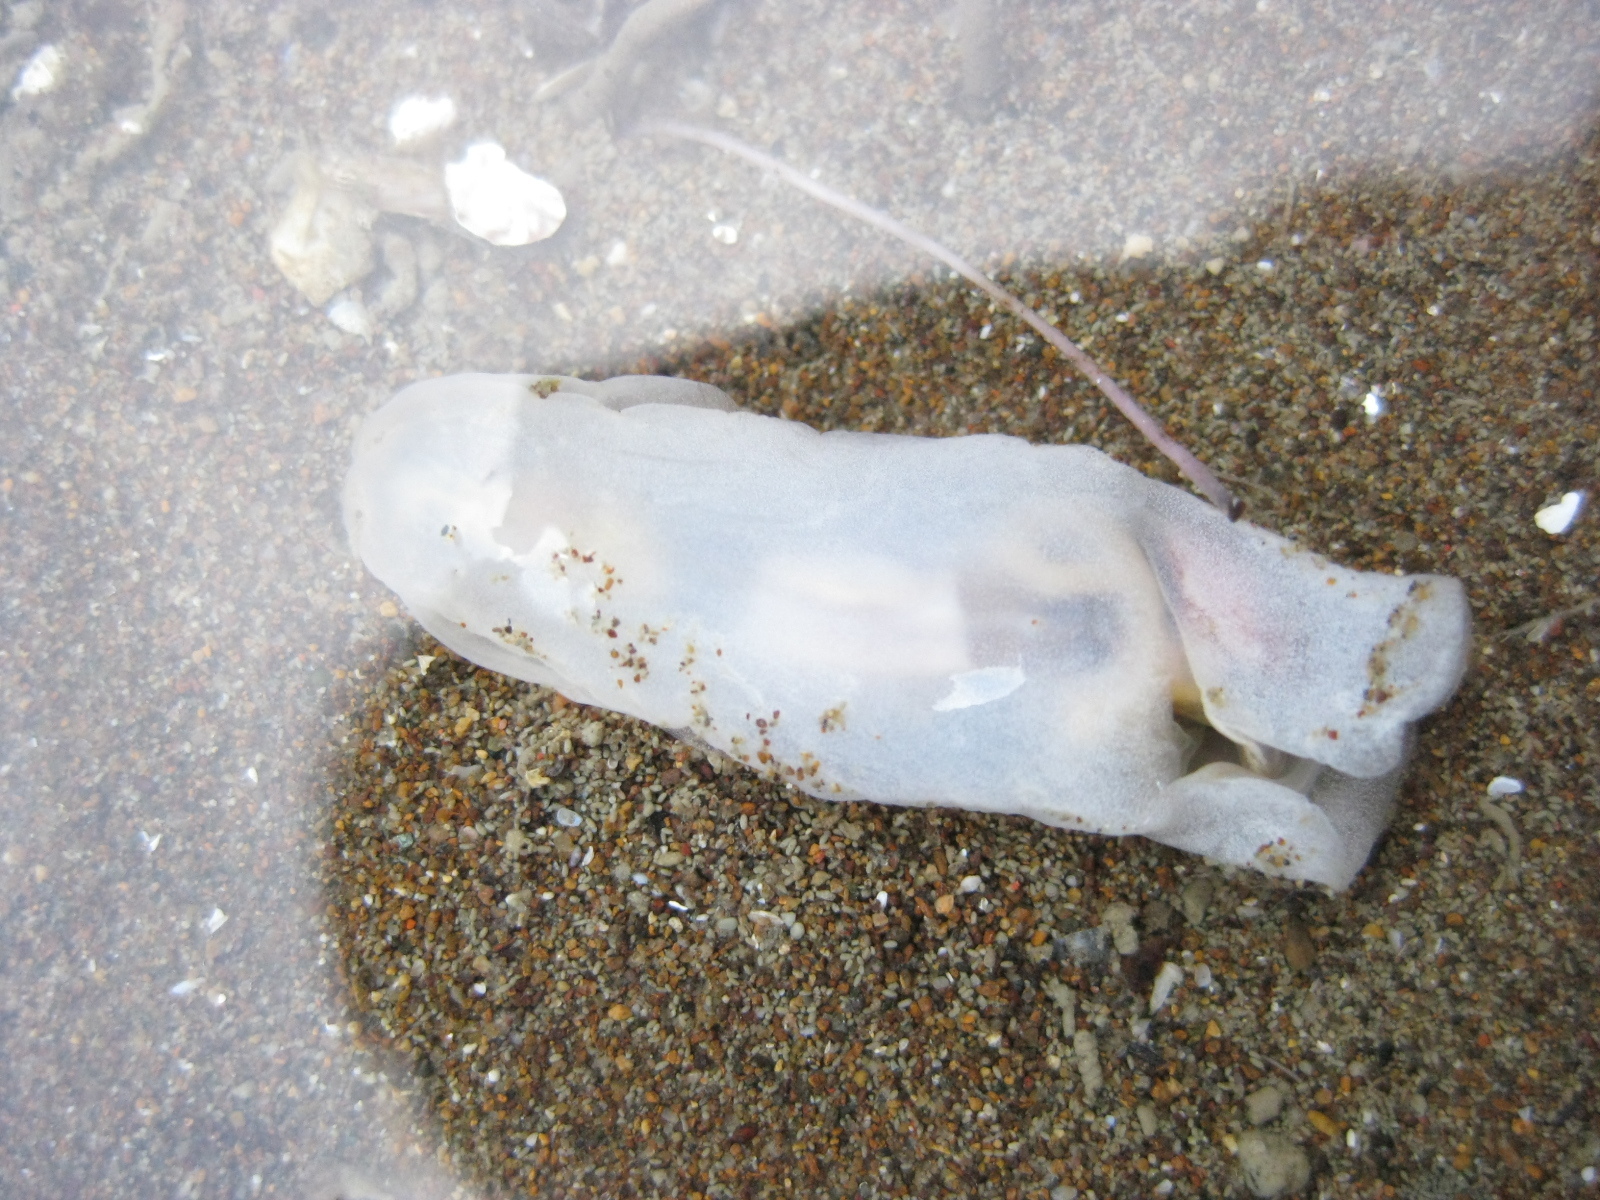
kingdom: Animalia
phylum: Mollusca
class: Gastropoda
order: Cephalaspidea
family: Philinidae
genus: Philine
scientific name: Philine
